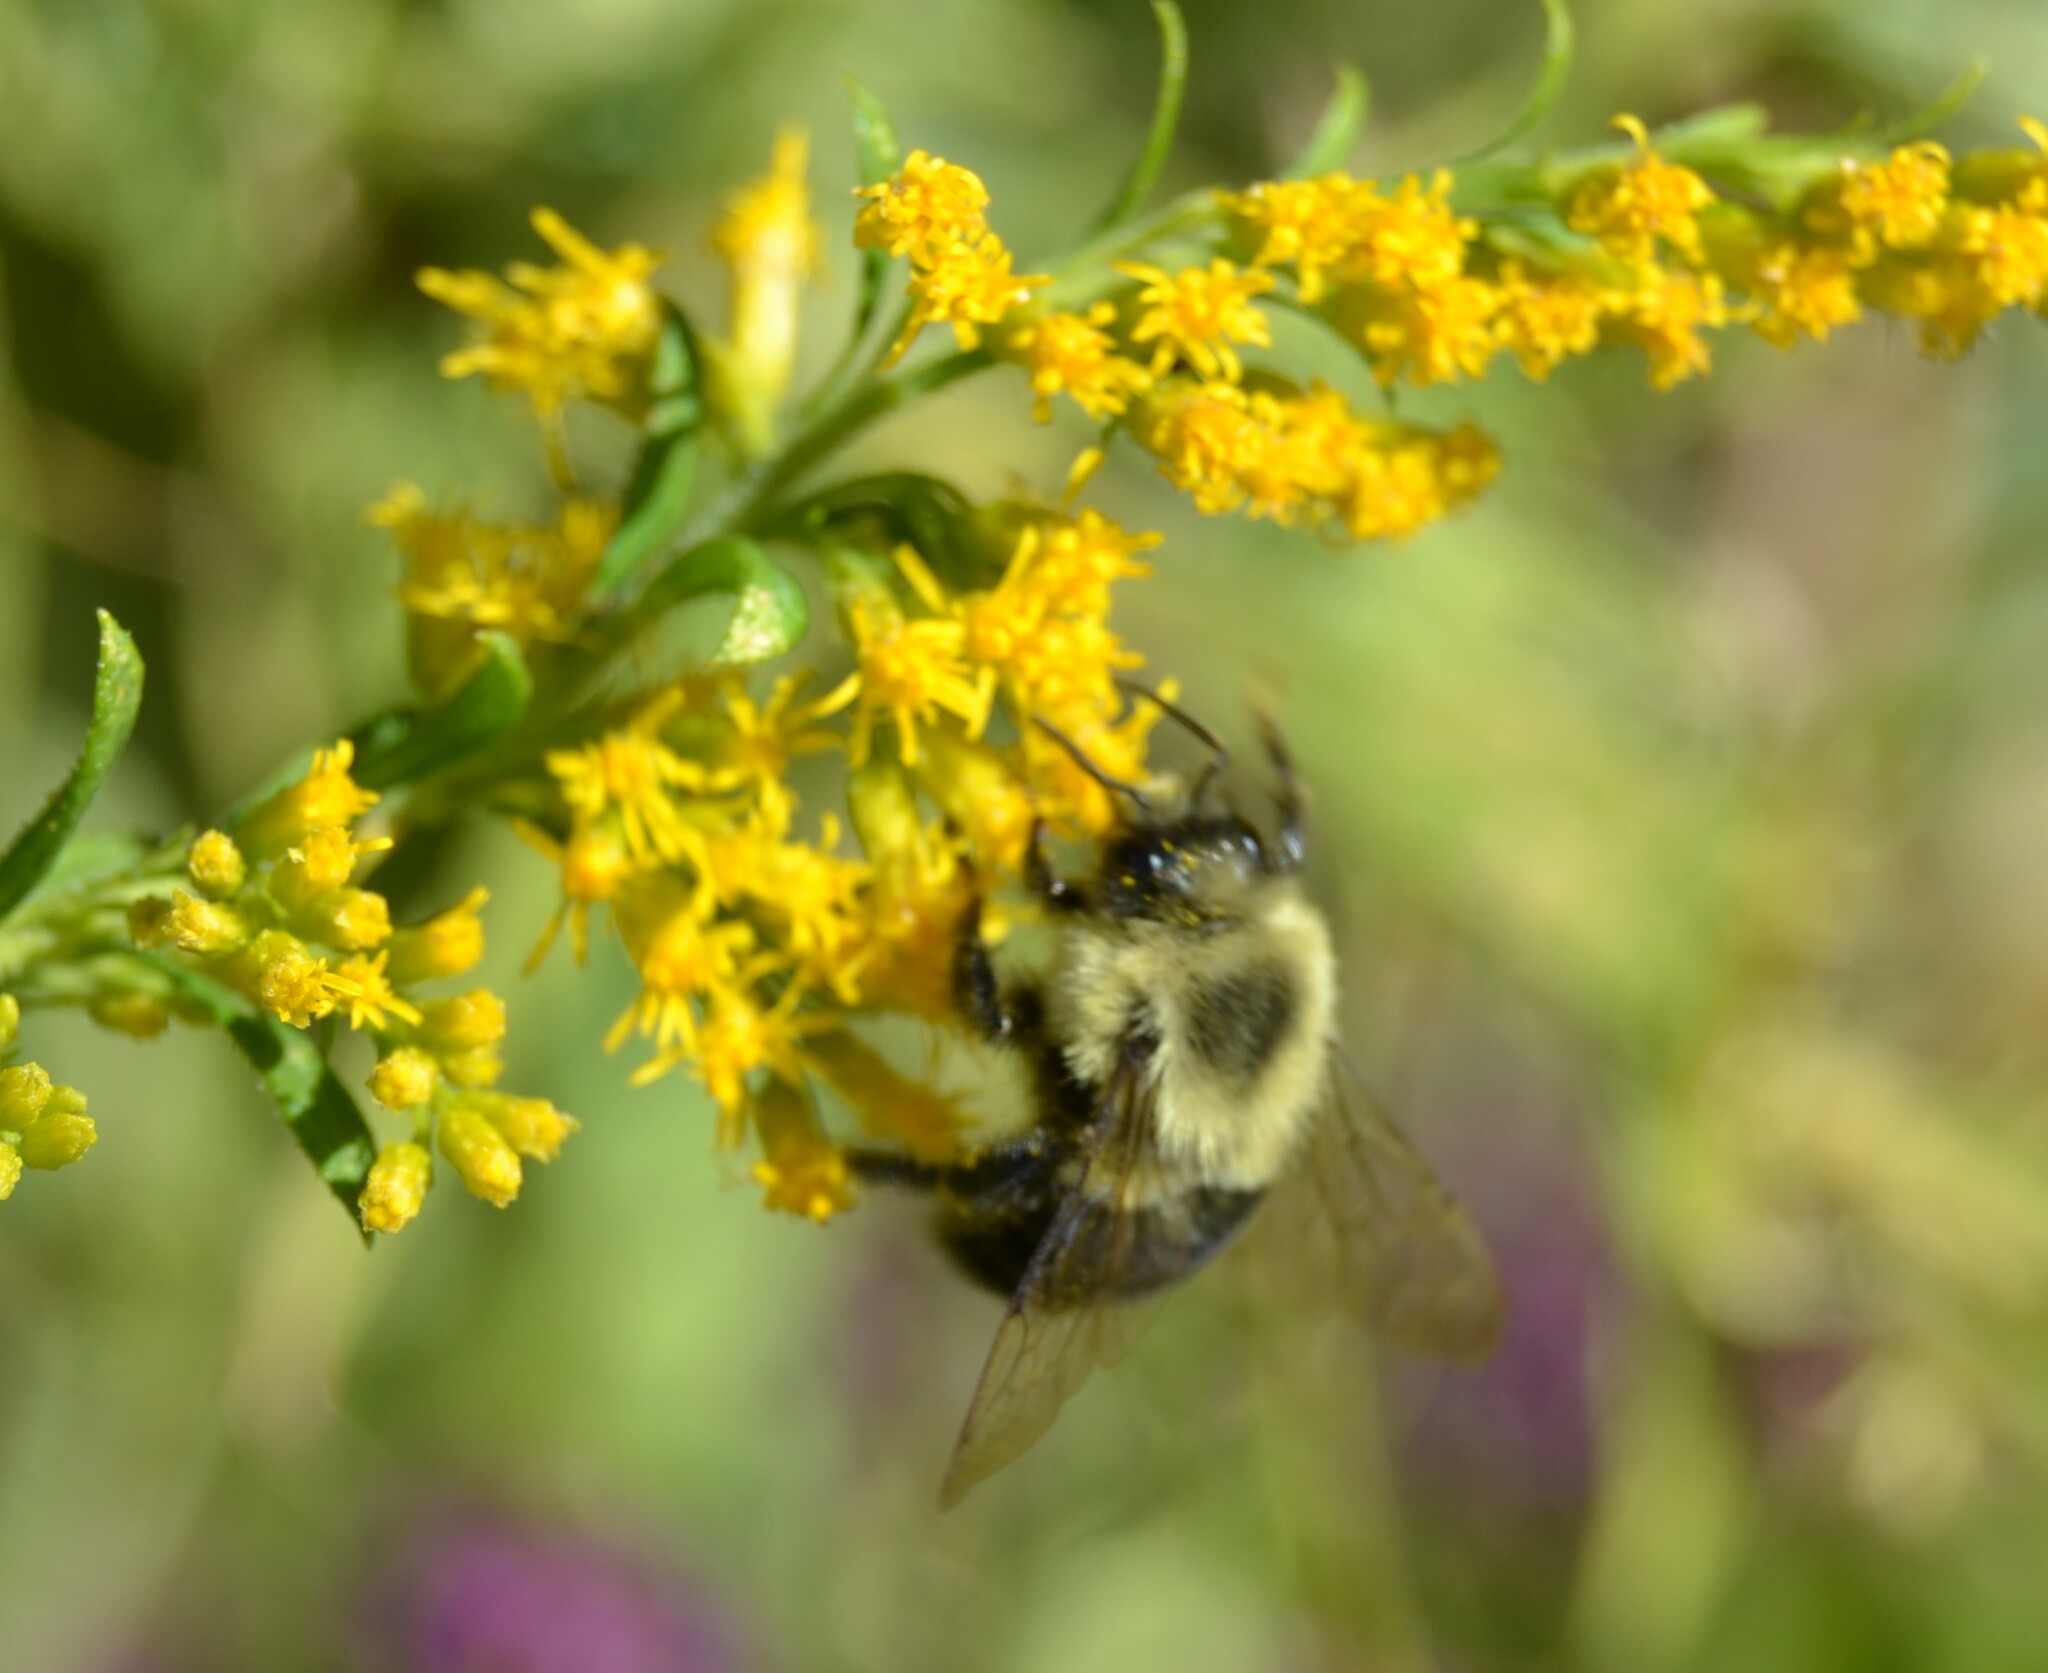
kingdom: Animalia
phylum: Arthropoda
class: Insecta
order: Hymenoptera
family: Apidae
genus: Bombus
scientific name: Bombus impatiens
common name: Common eastern bumble bee
